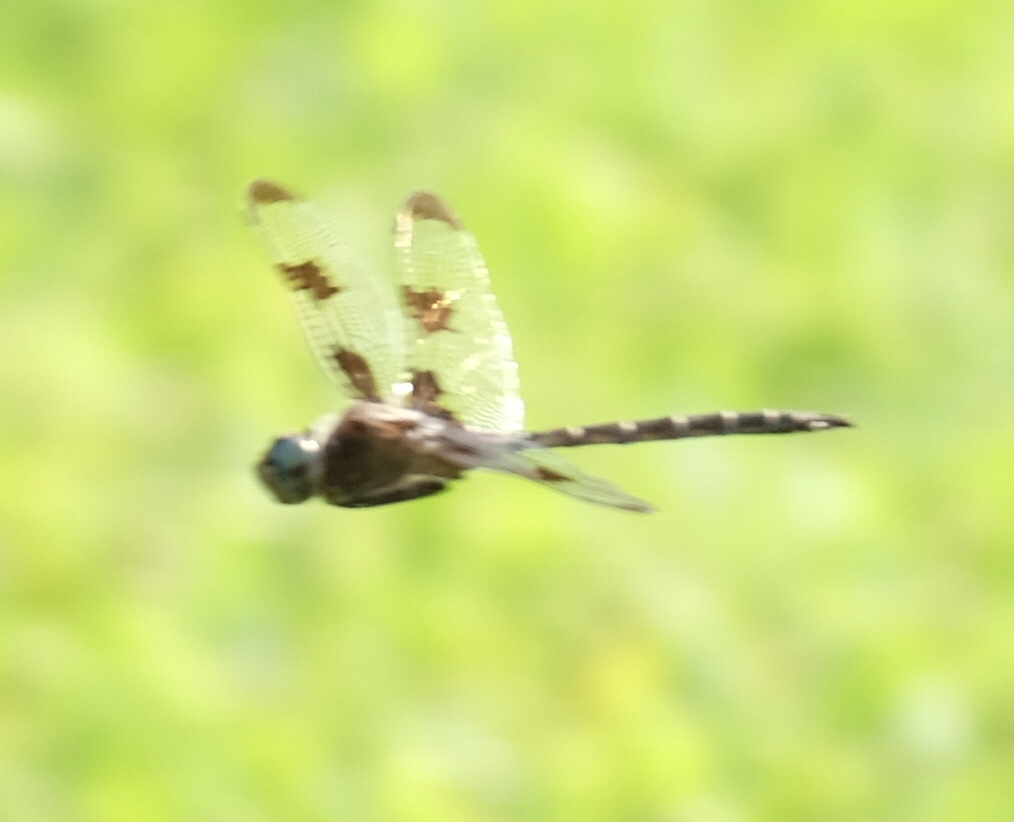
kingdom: Animalia
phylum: Arthropoda
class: Insecta
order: Odonata
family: Corduliidae
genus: Epitheca
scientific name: Epitheca princeps
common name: Prince baskettail
